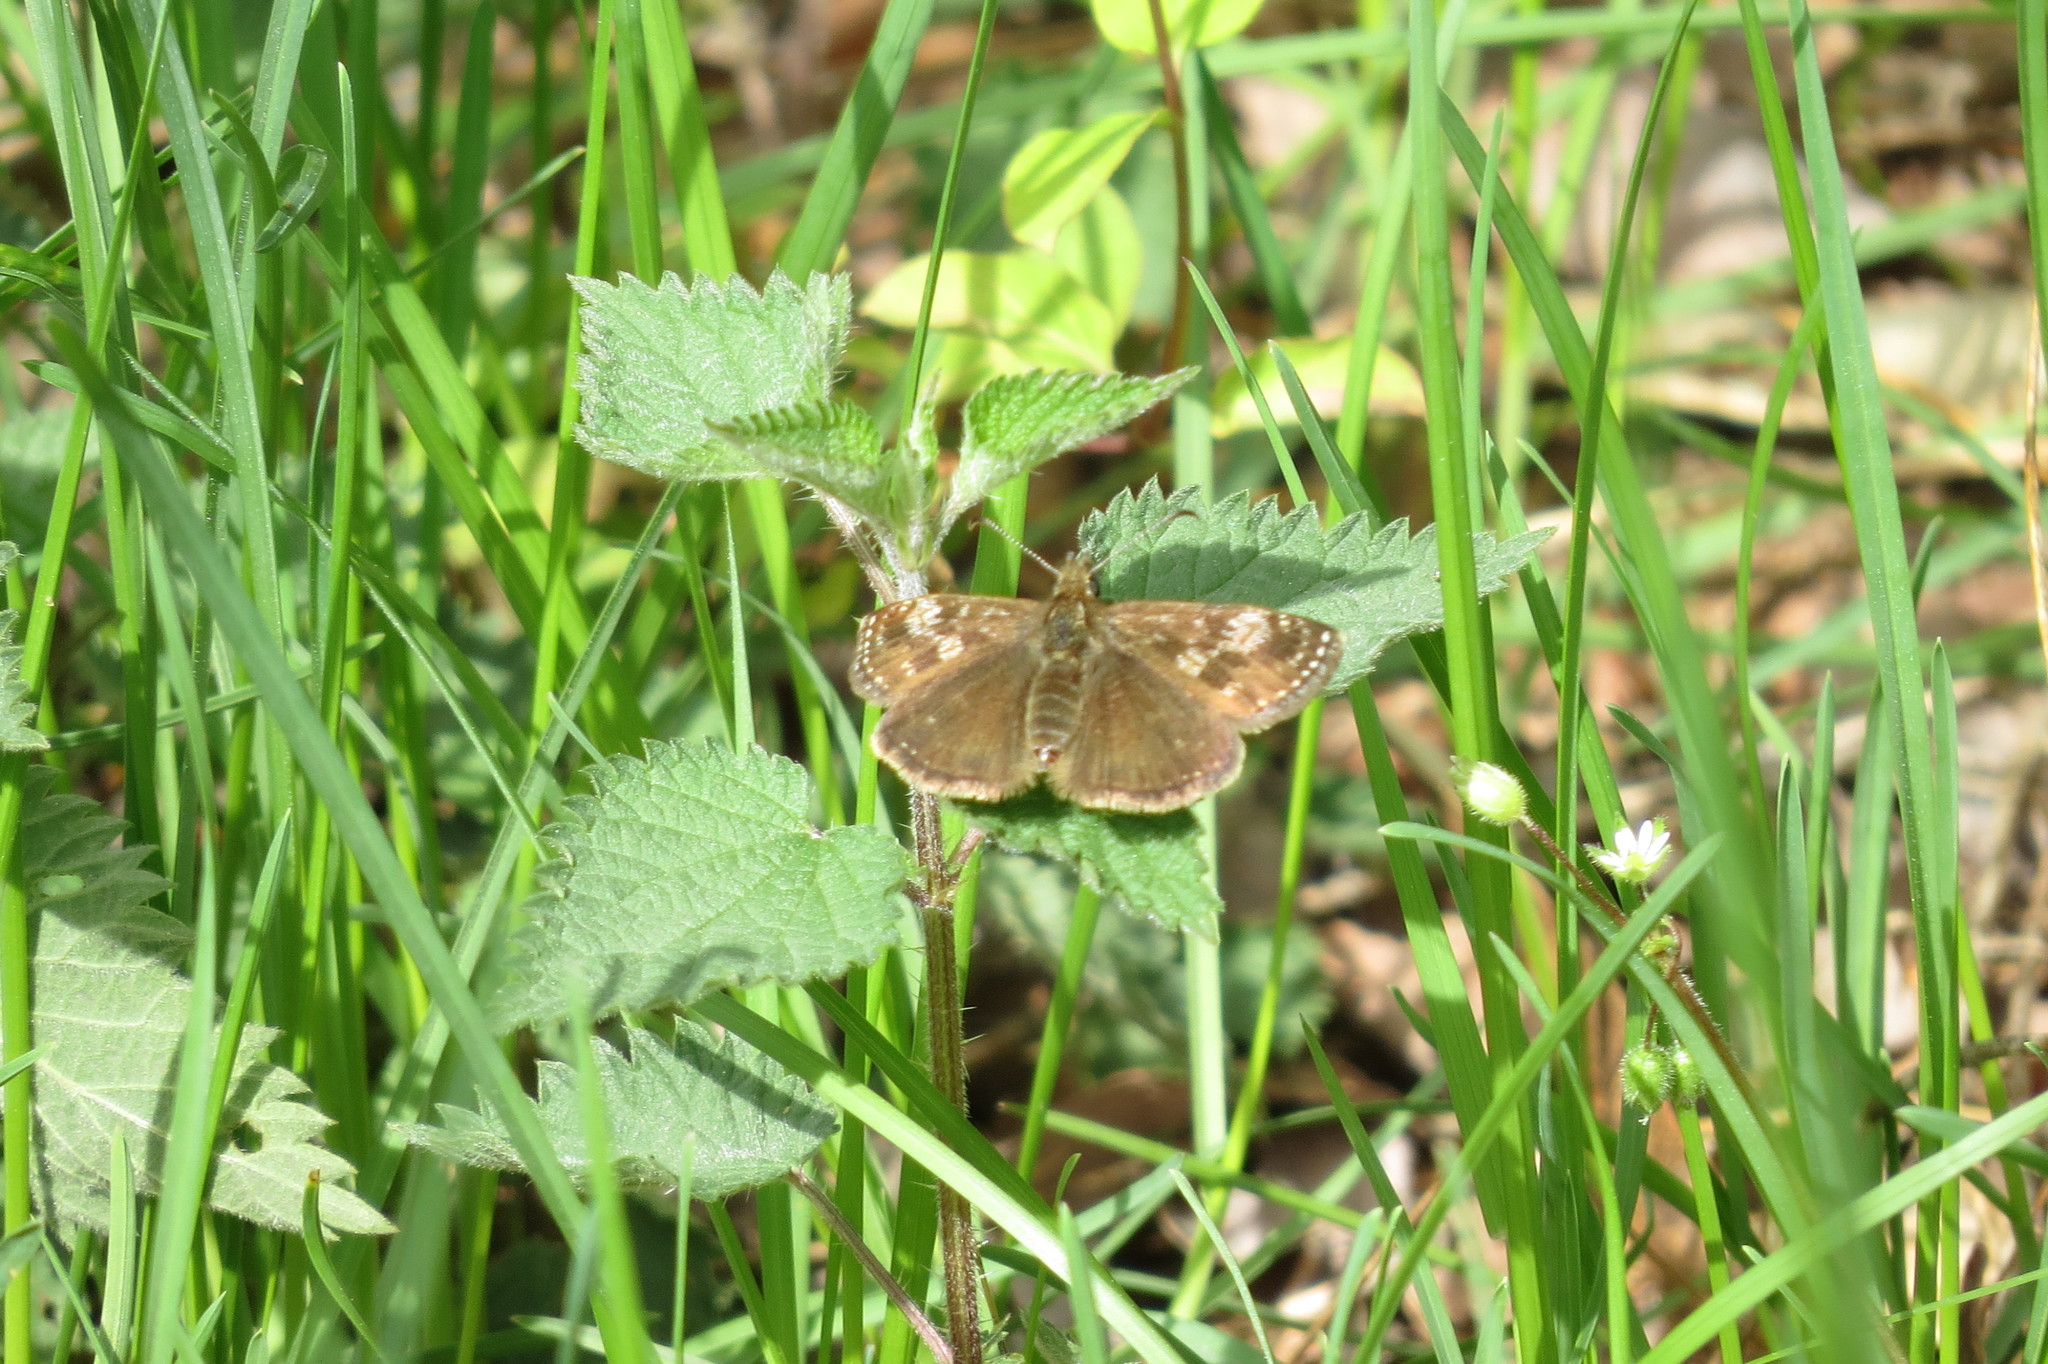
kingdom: Animalia
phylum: Arthropoda
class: Insecta
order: Lepidoptera
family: Hesperiidae
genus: Erynnis
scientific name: Erynnis tages
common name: Dingy skipper
